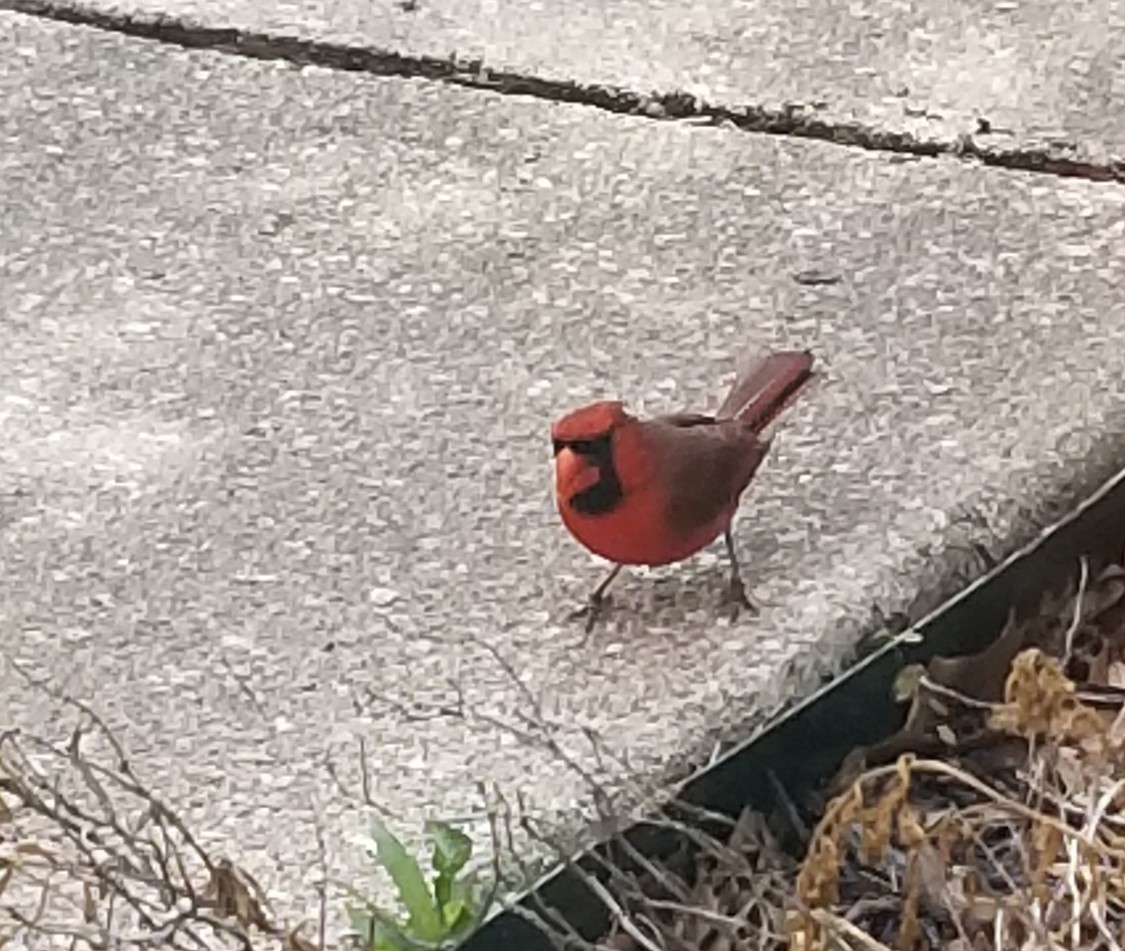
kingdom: Animalia
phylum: Chordata
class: Aves
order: Passeriformes
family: Cardinalidae
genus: Cardinalis
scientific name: Cardinalis cardinalis
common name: Northern cardinal
